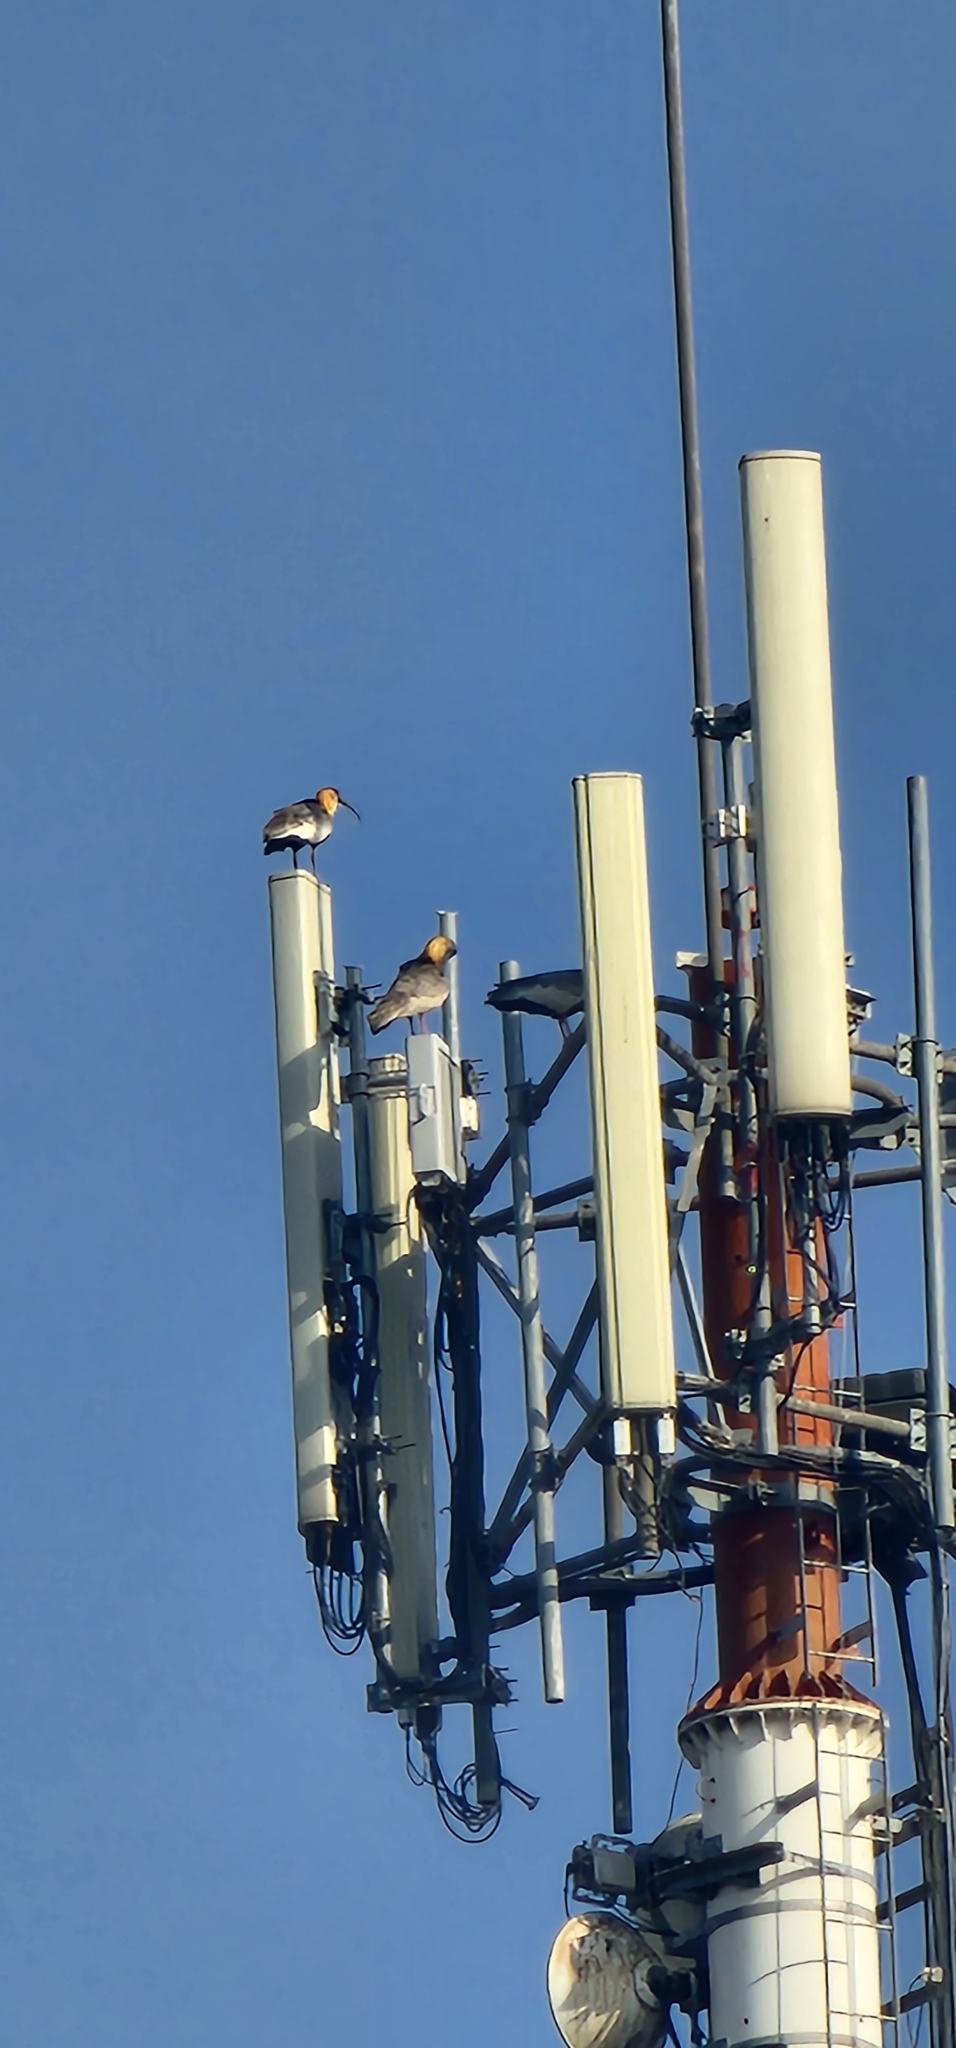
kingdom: Animalia
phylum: Chordata
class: Aves
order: Pelecaniformes
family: Threskiornithidae
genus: Theristicus
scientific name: Theristicus caudatus
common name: Buff-necked ibis
